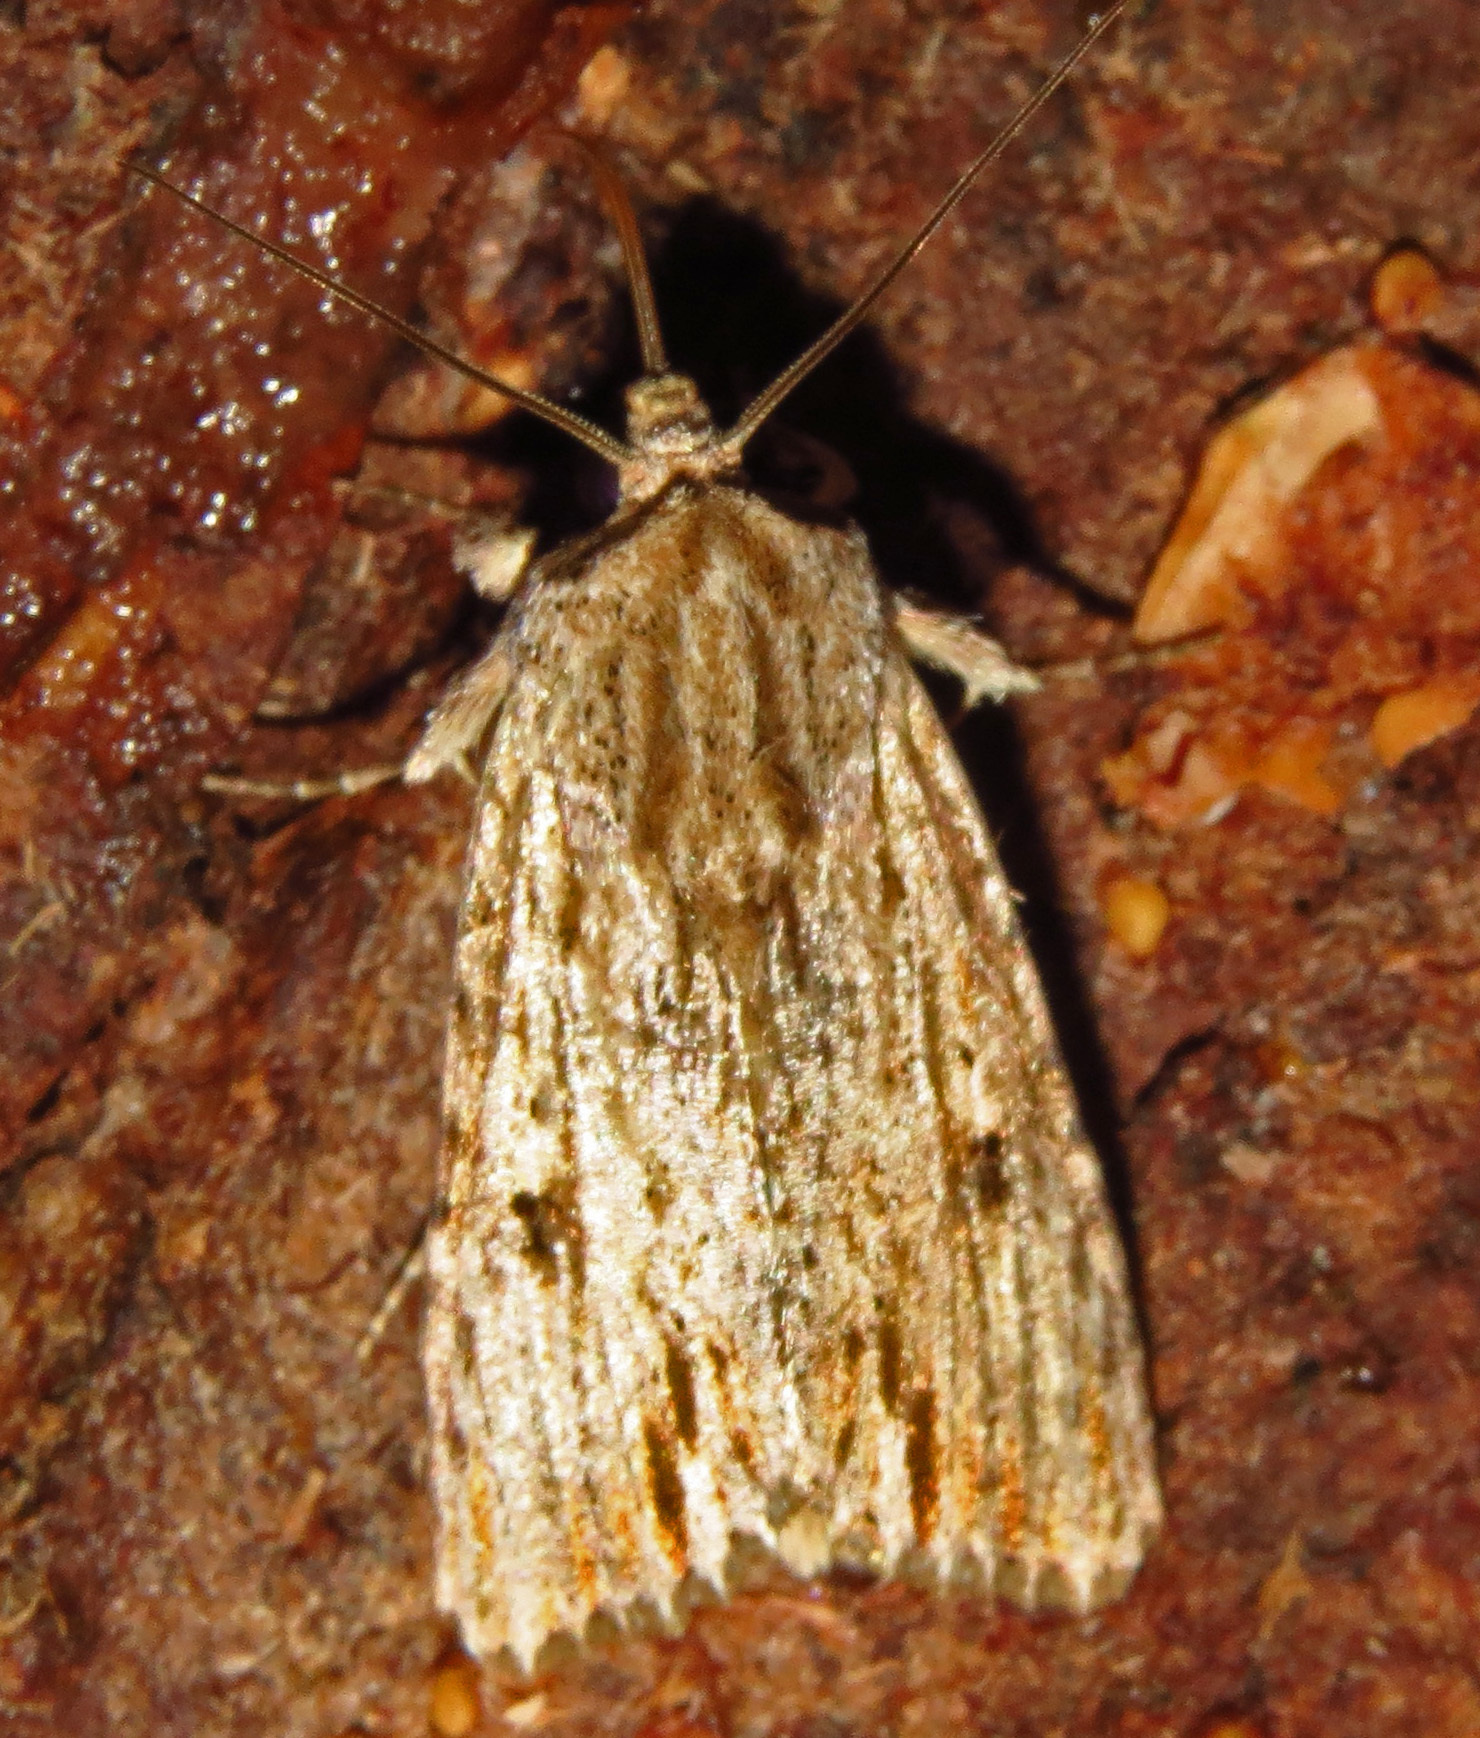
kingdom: Animalia
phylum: Arthropoda
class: Insecta
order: Lepidoptera
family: Noctuidae
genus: Spodoptera
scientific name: Spodoptera eridania
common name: Southern army worm
